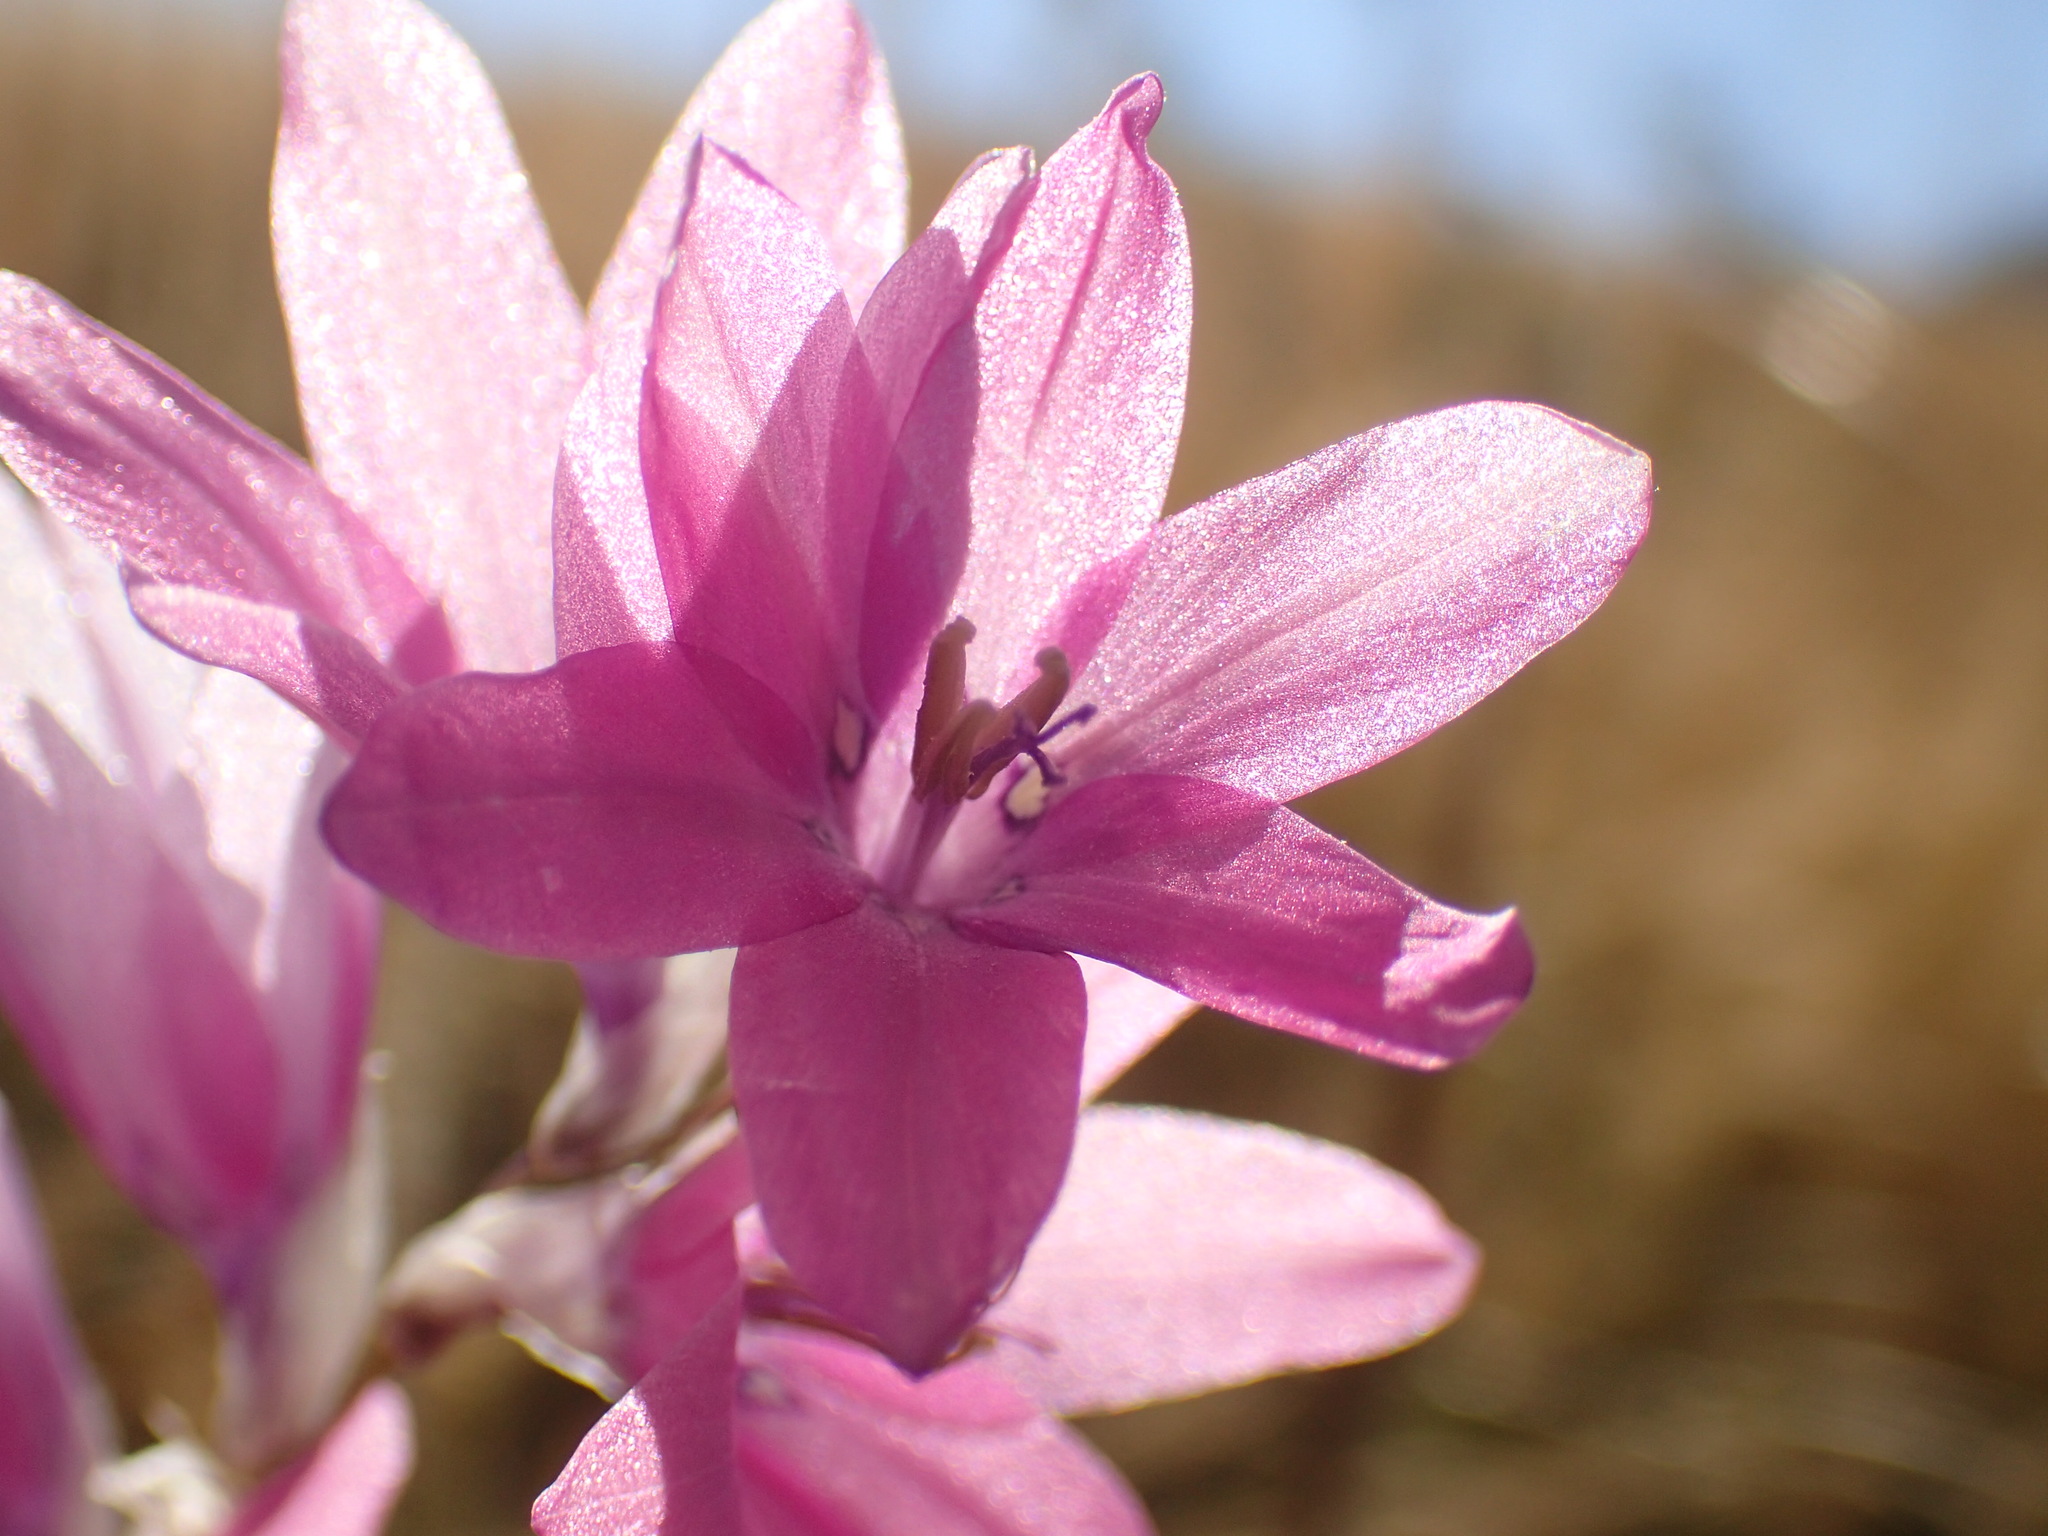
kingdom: Plantae
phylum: Tracheophyta
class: Liliopsida
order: Asparagales
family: Iridaceae
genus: Dierama
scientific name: Dierama latifolium
